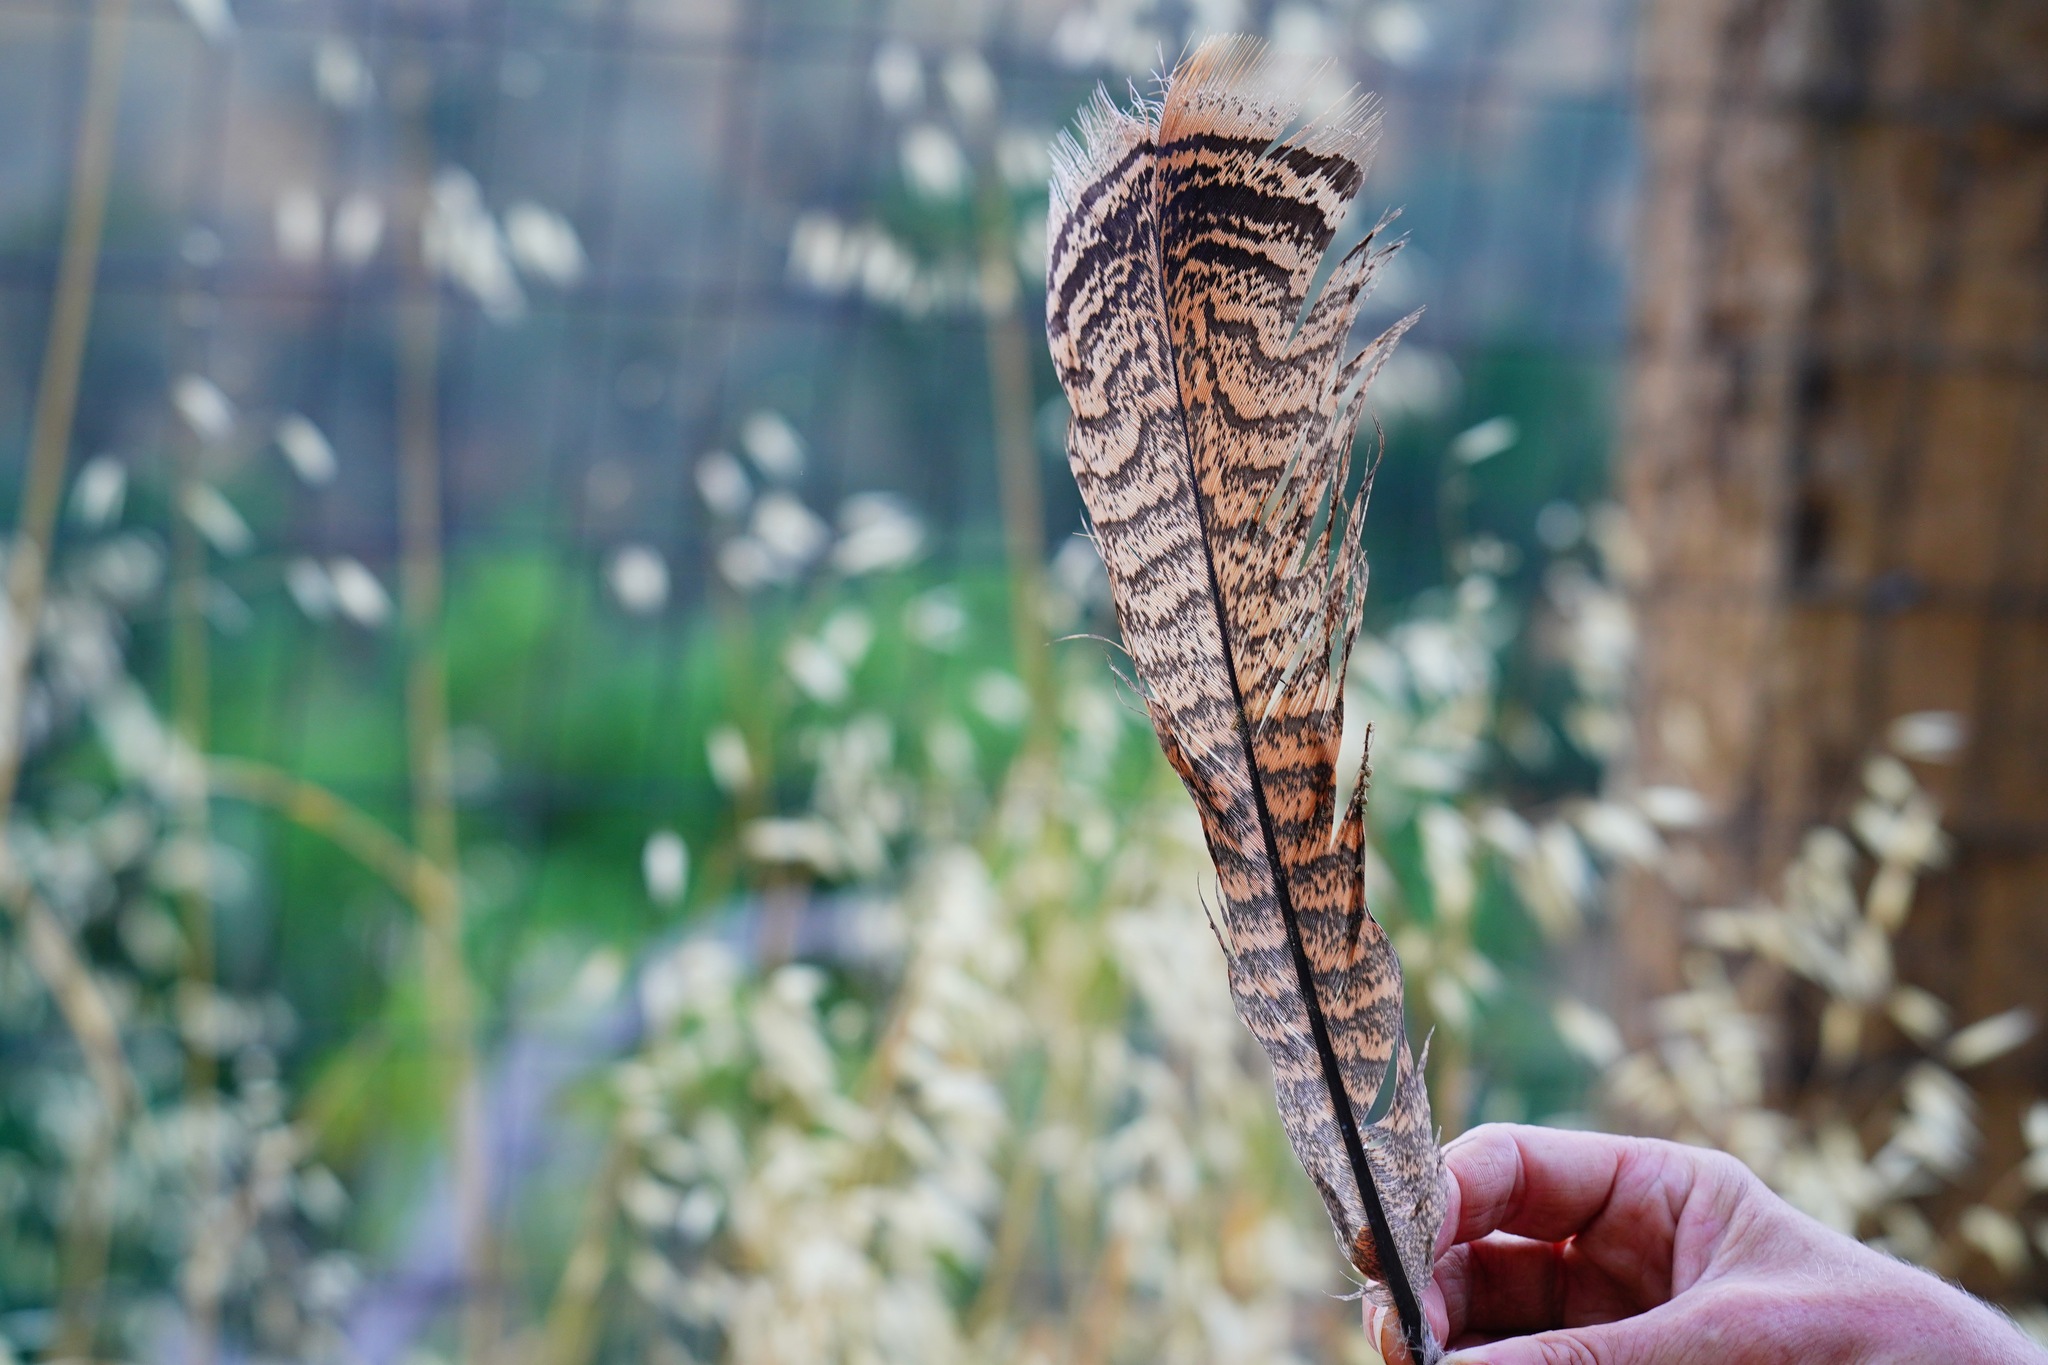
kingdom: Animalia
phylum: Chordata
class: Aves
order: Galliformes
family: Phasianidae
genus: Meleagris
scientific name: Meleagris gallopavo
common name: Wild turkey
